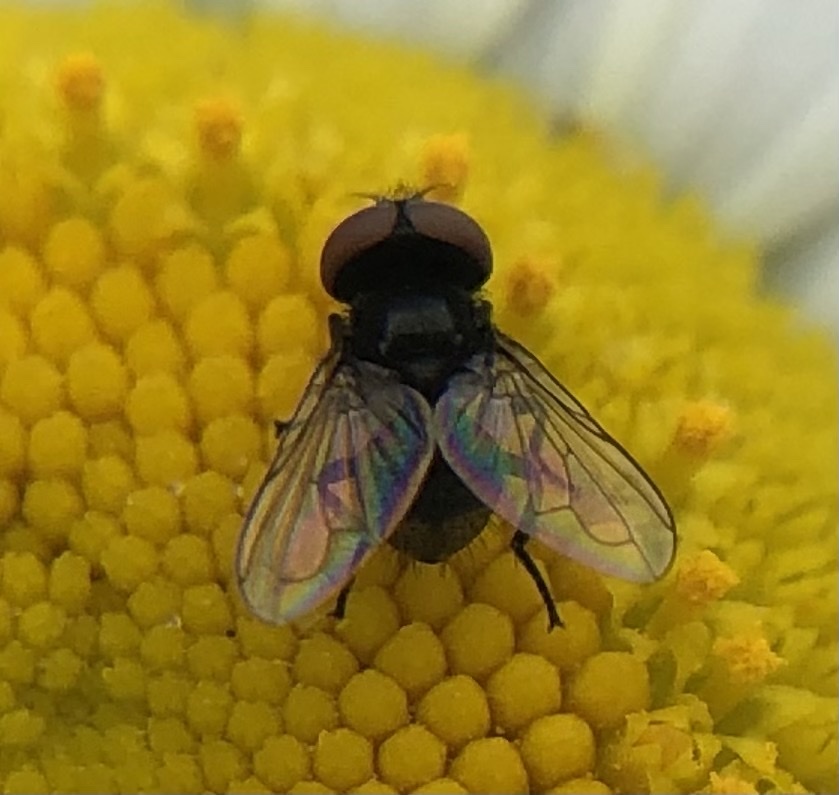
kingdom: Animalia
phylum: Arthropoda
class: Insecta
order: Diptera
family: Tachinidae
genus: Phasia
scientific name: Phasia pusilla
